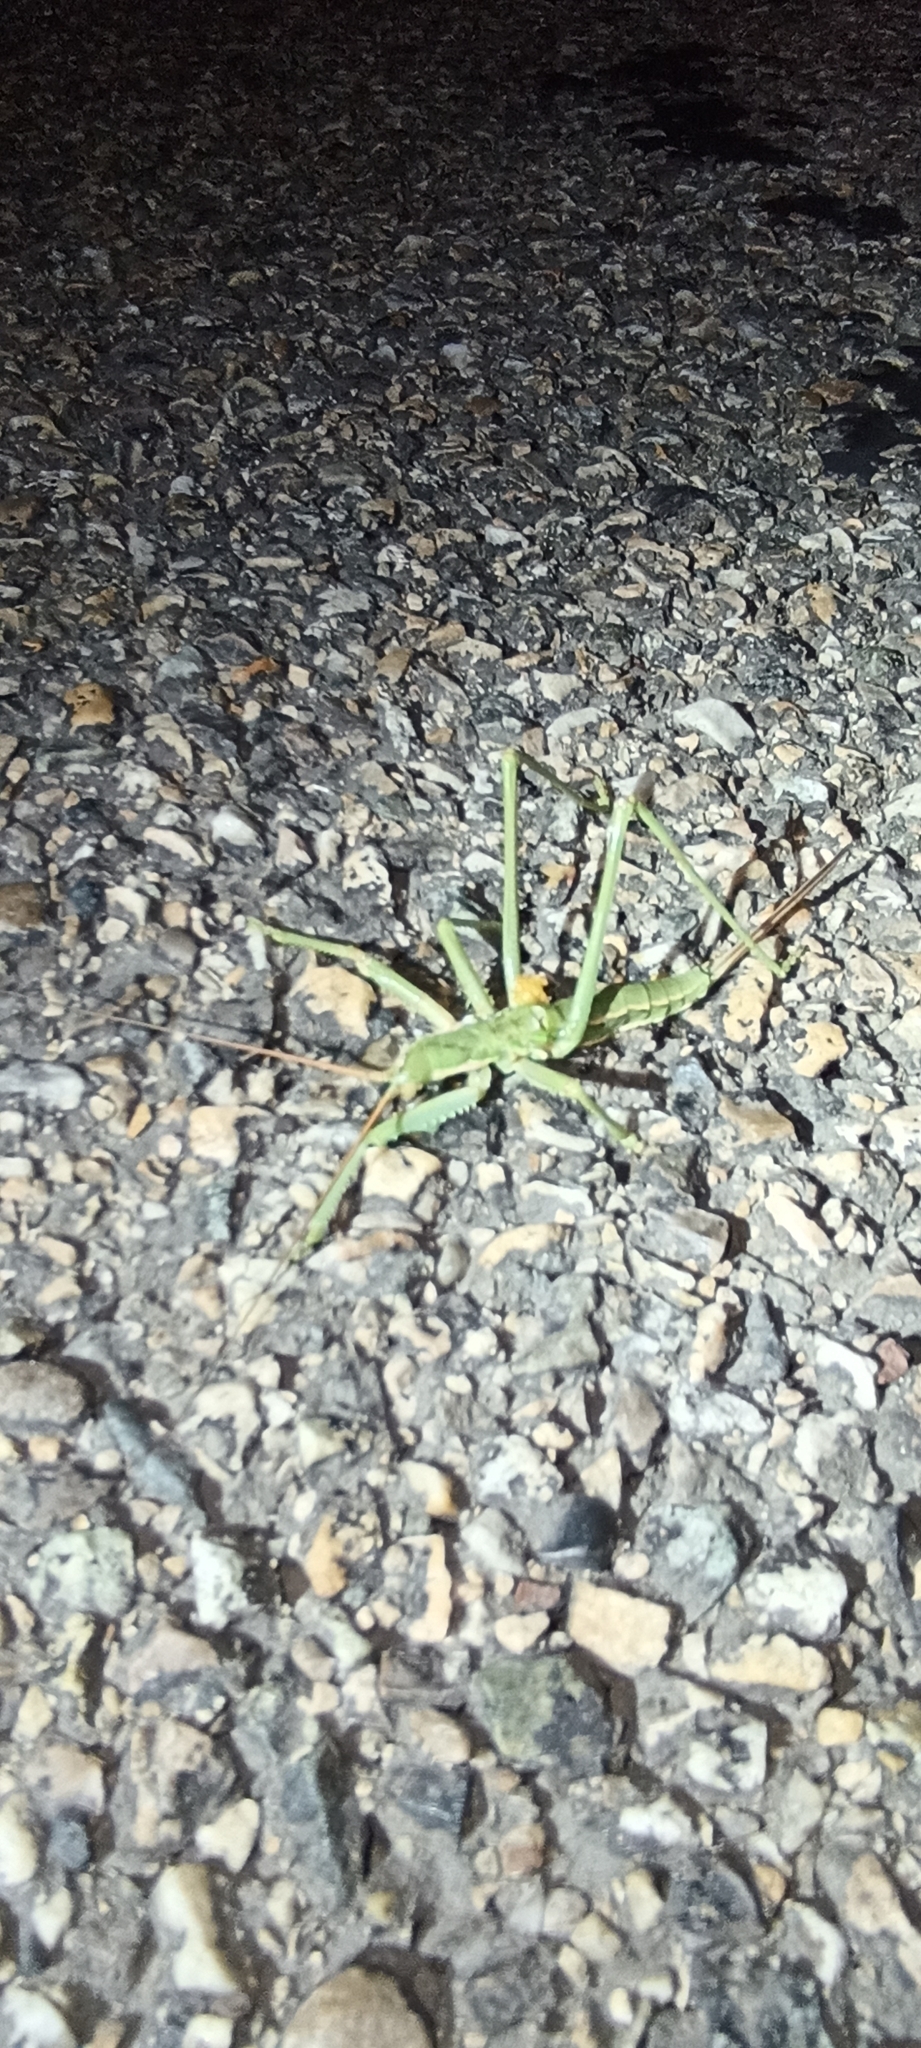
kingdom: Animalia
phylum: Arthropoda
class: Insecta
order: Orthoptera
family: Tettigoniidae
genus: Saga
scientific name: Saga pedo
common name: Common predatory bush-cricket
